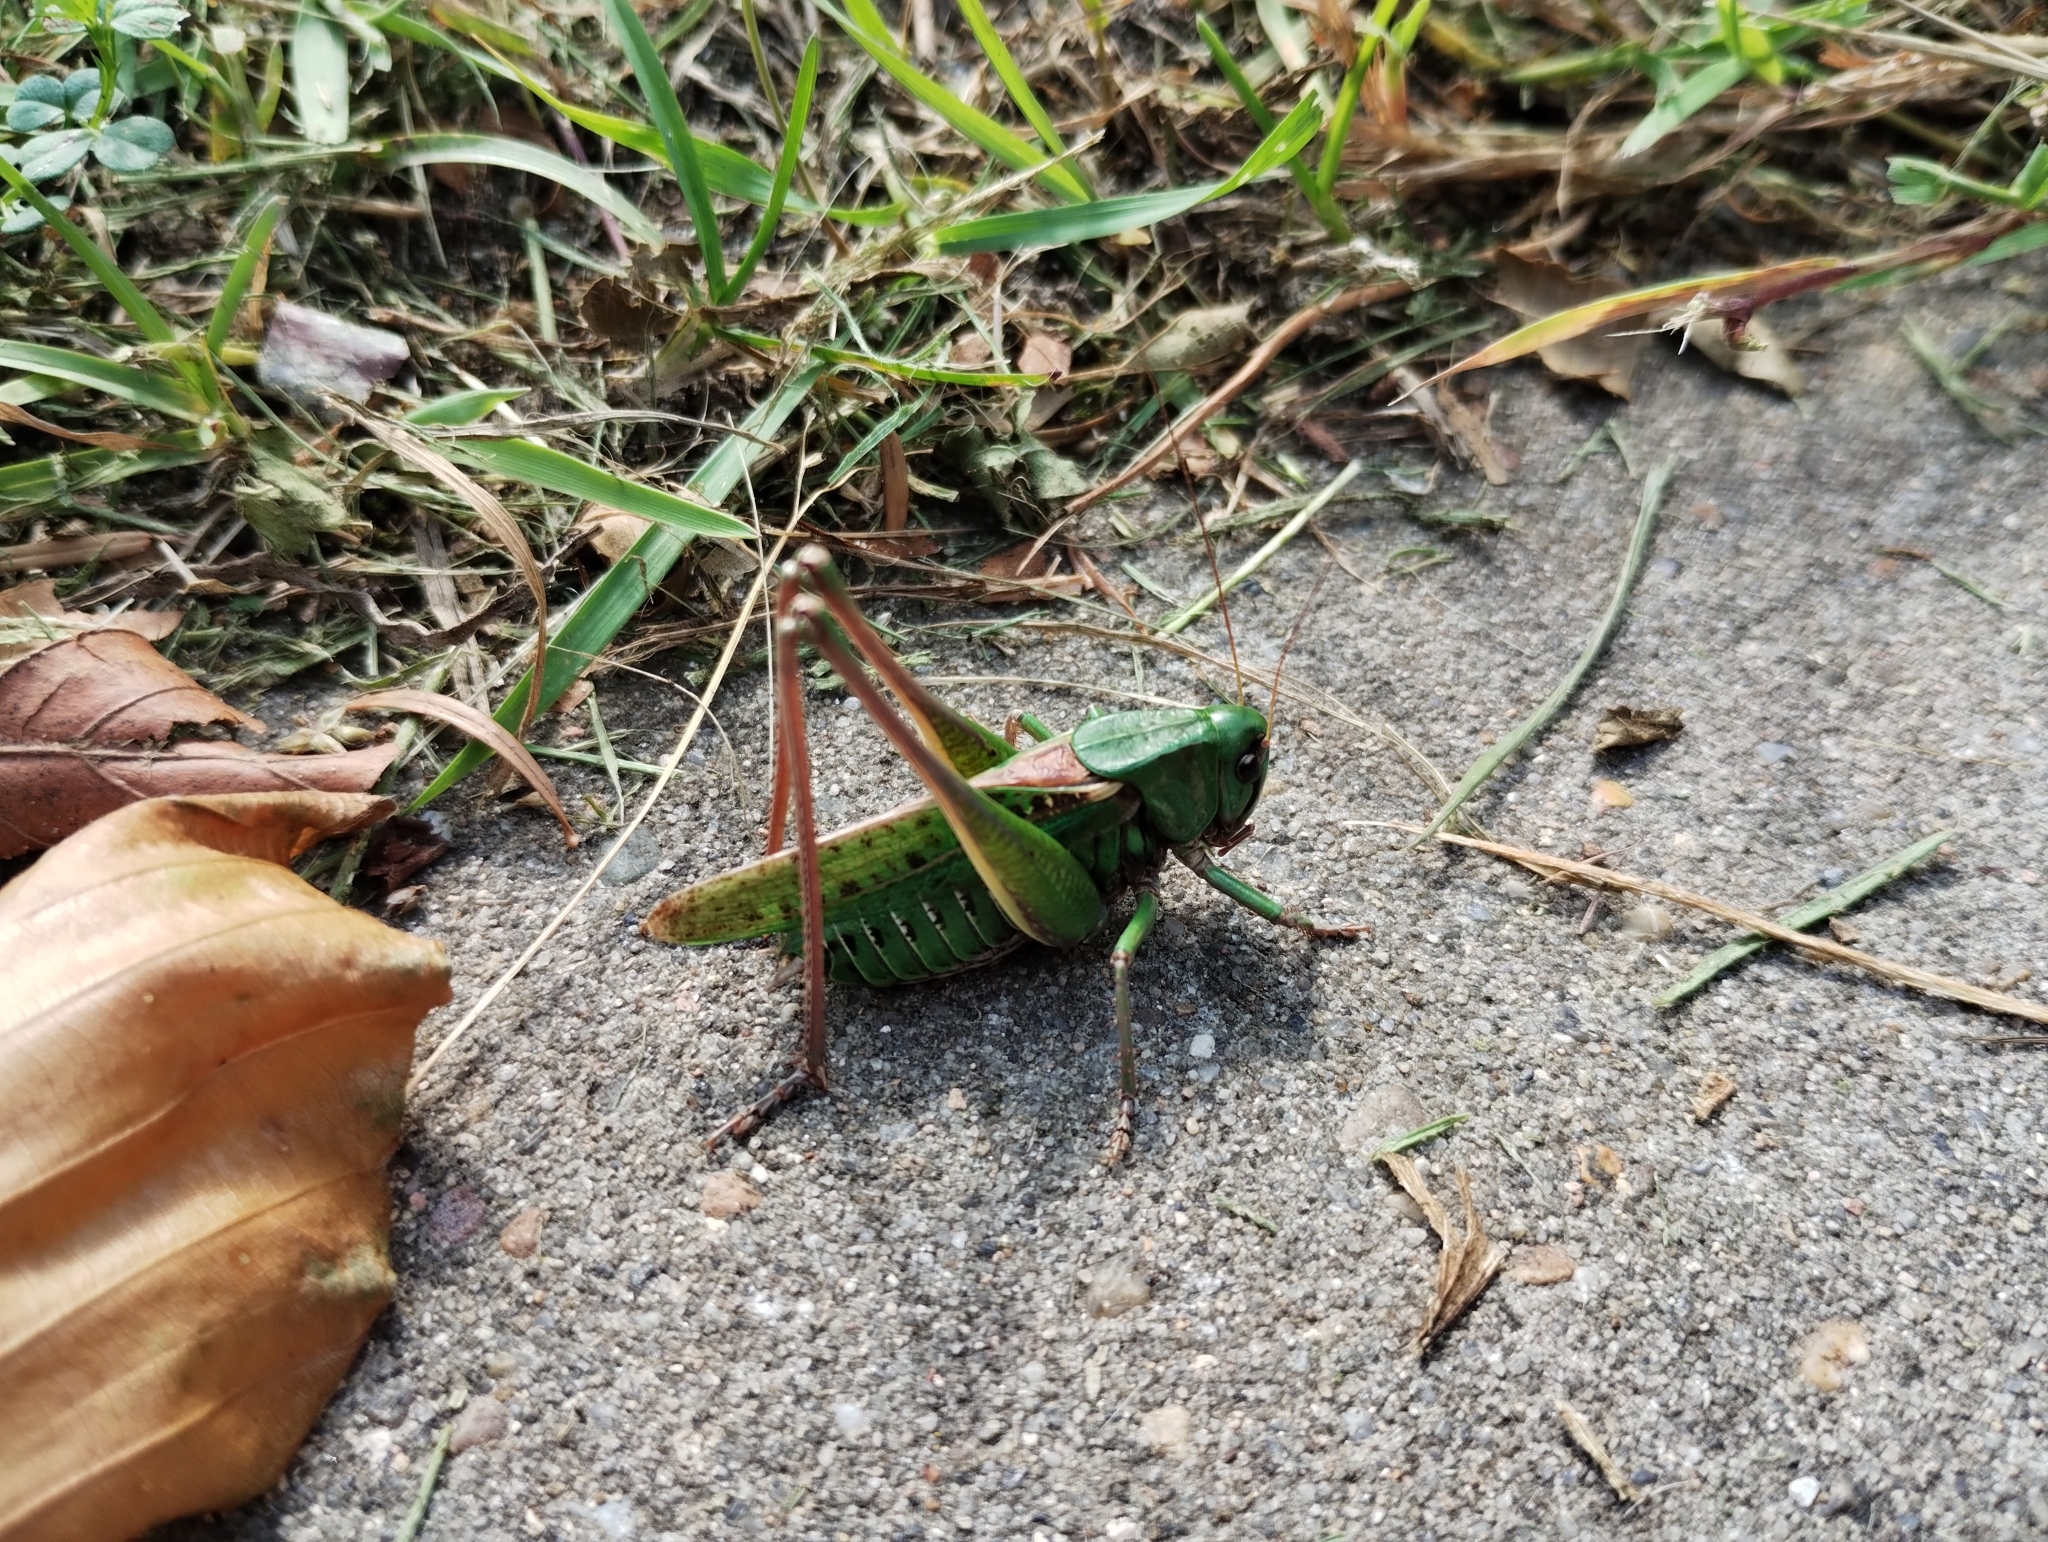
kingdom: Animalia
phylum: Arthropoda
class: Insecta
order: Orthoptera
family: Tettigoniidae
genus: Decticus
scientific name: Decticus verrucivorus
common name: Wart-biter
